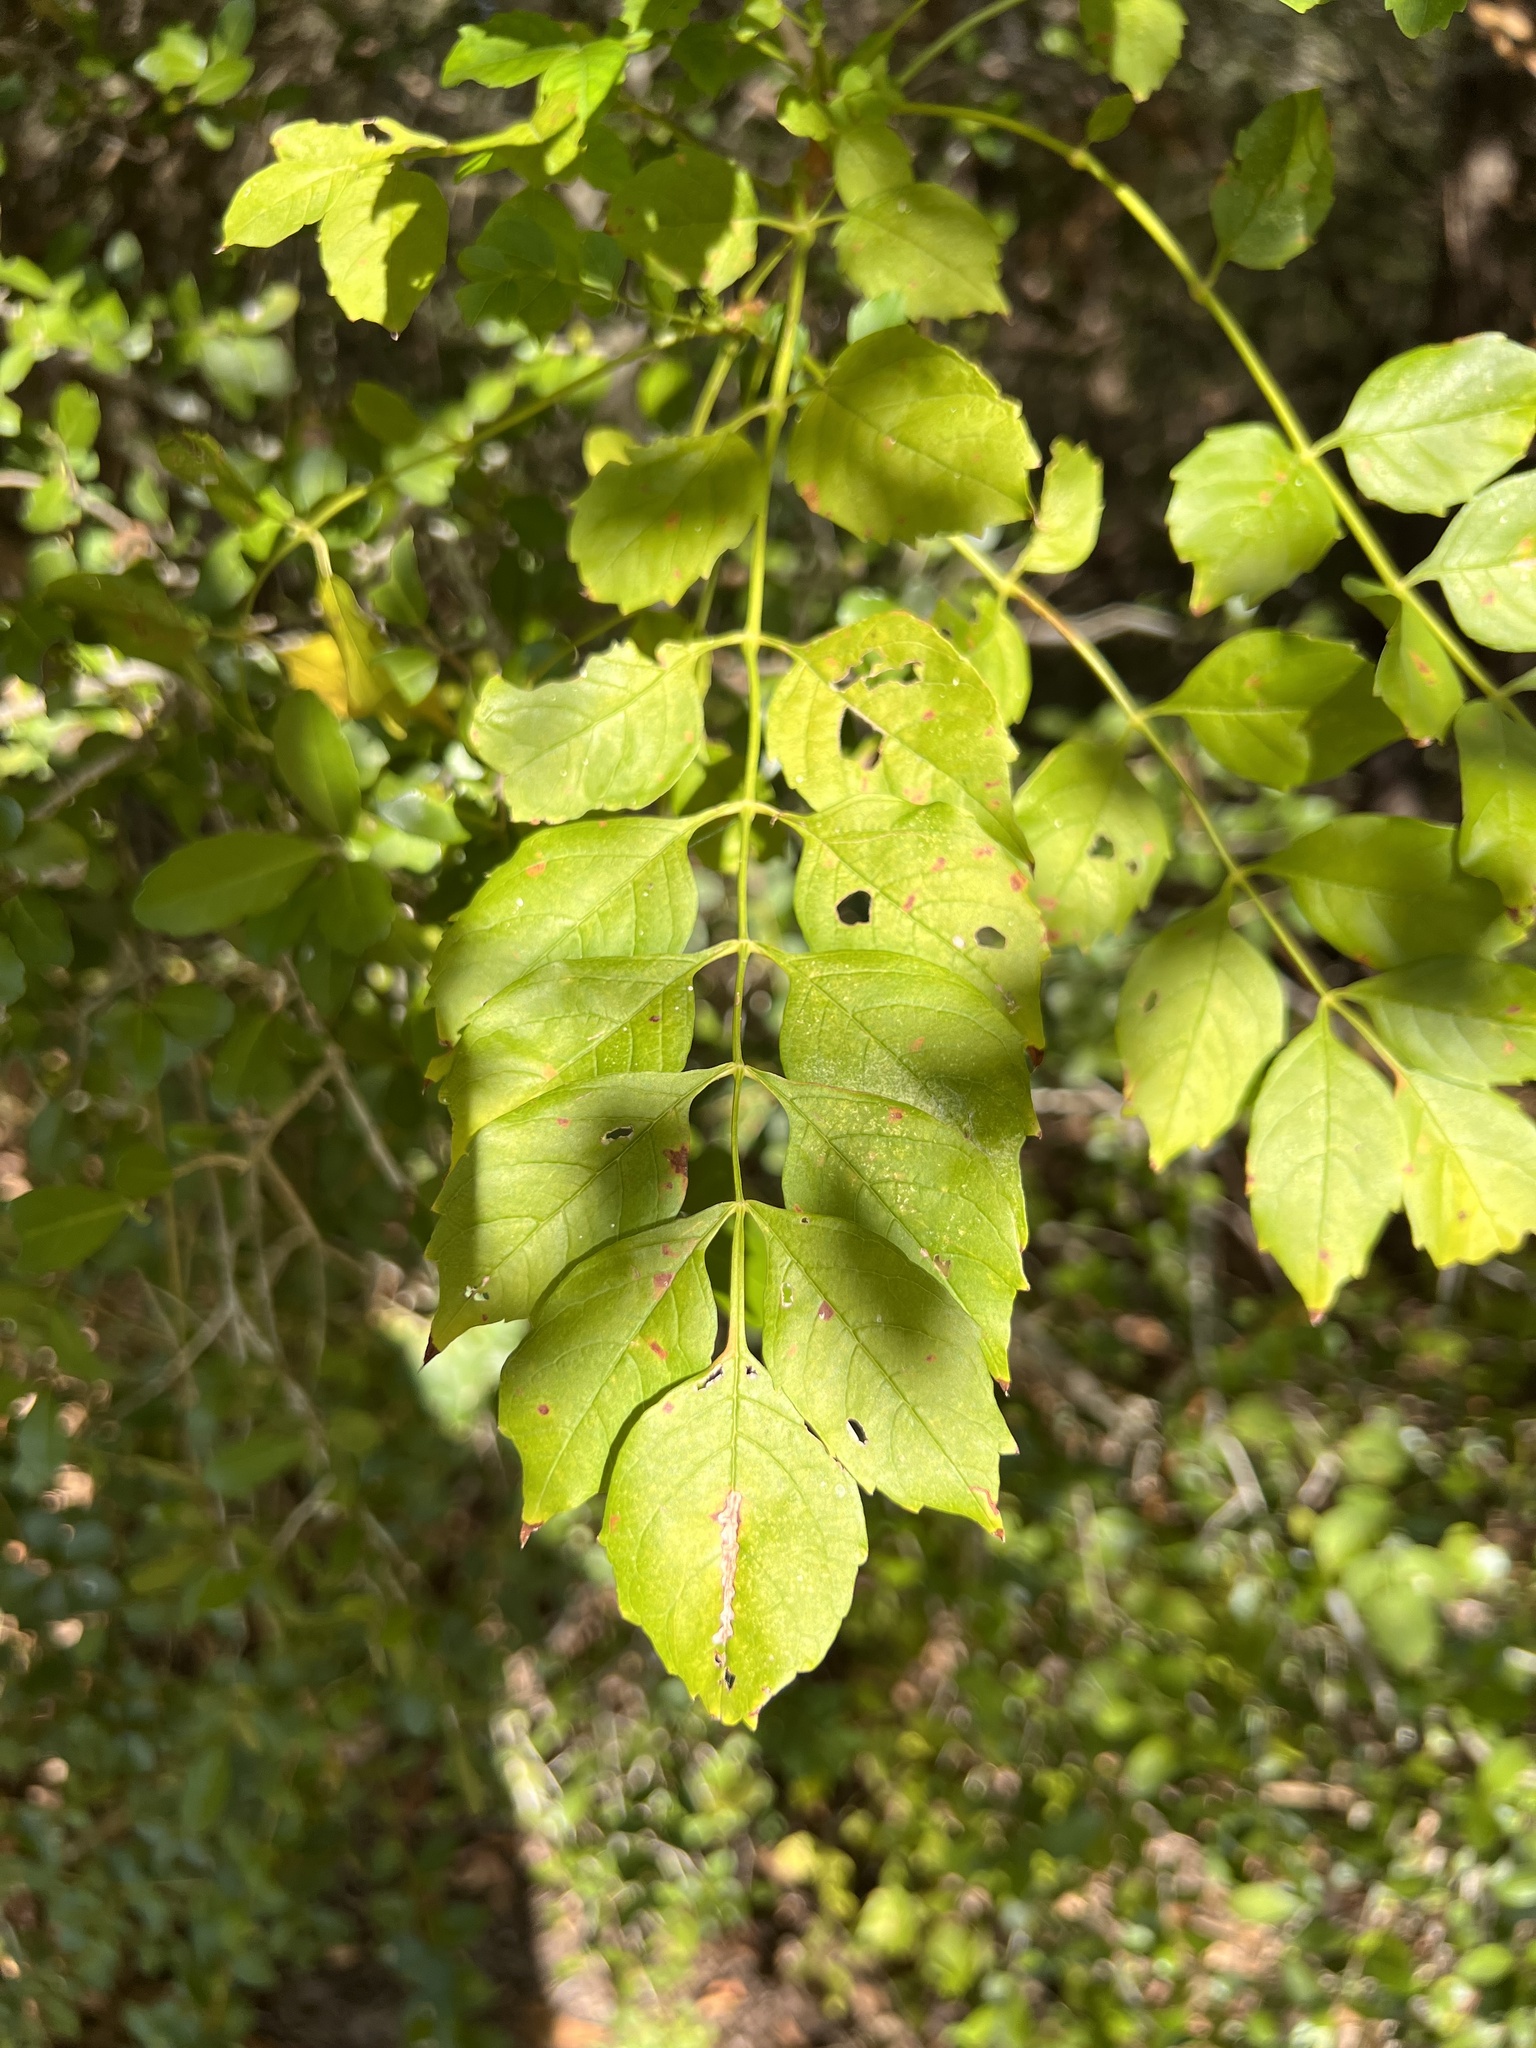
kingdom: Plantae
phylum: Tracheophyta
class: Magnoliopsida
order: Lamiales
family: Bignoniaceae
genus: Campsis
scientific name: Campsis radicans
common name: Trumpet-creeper
